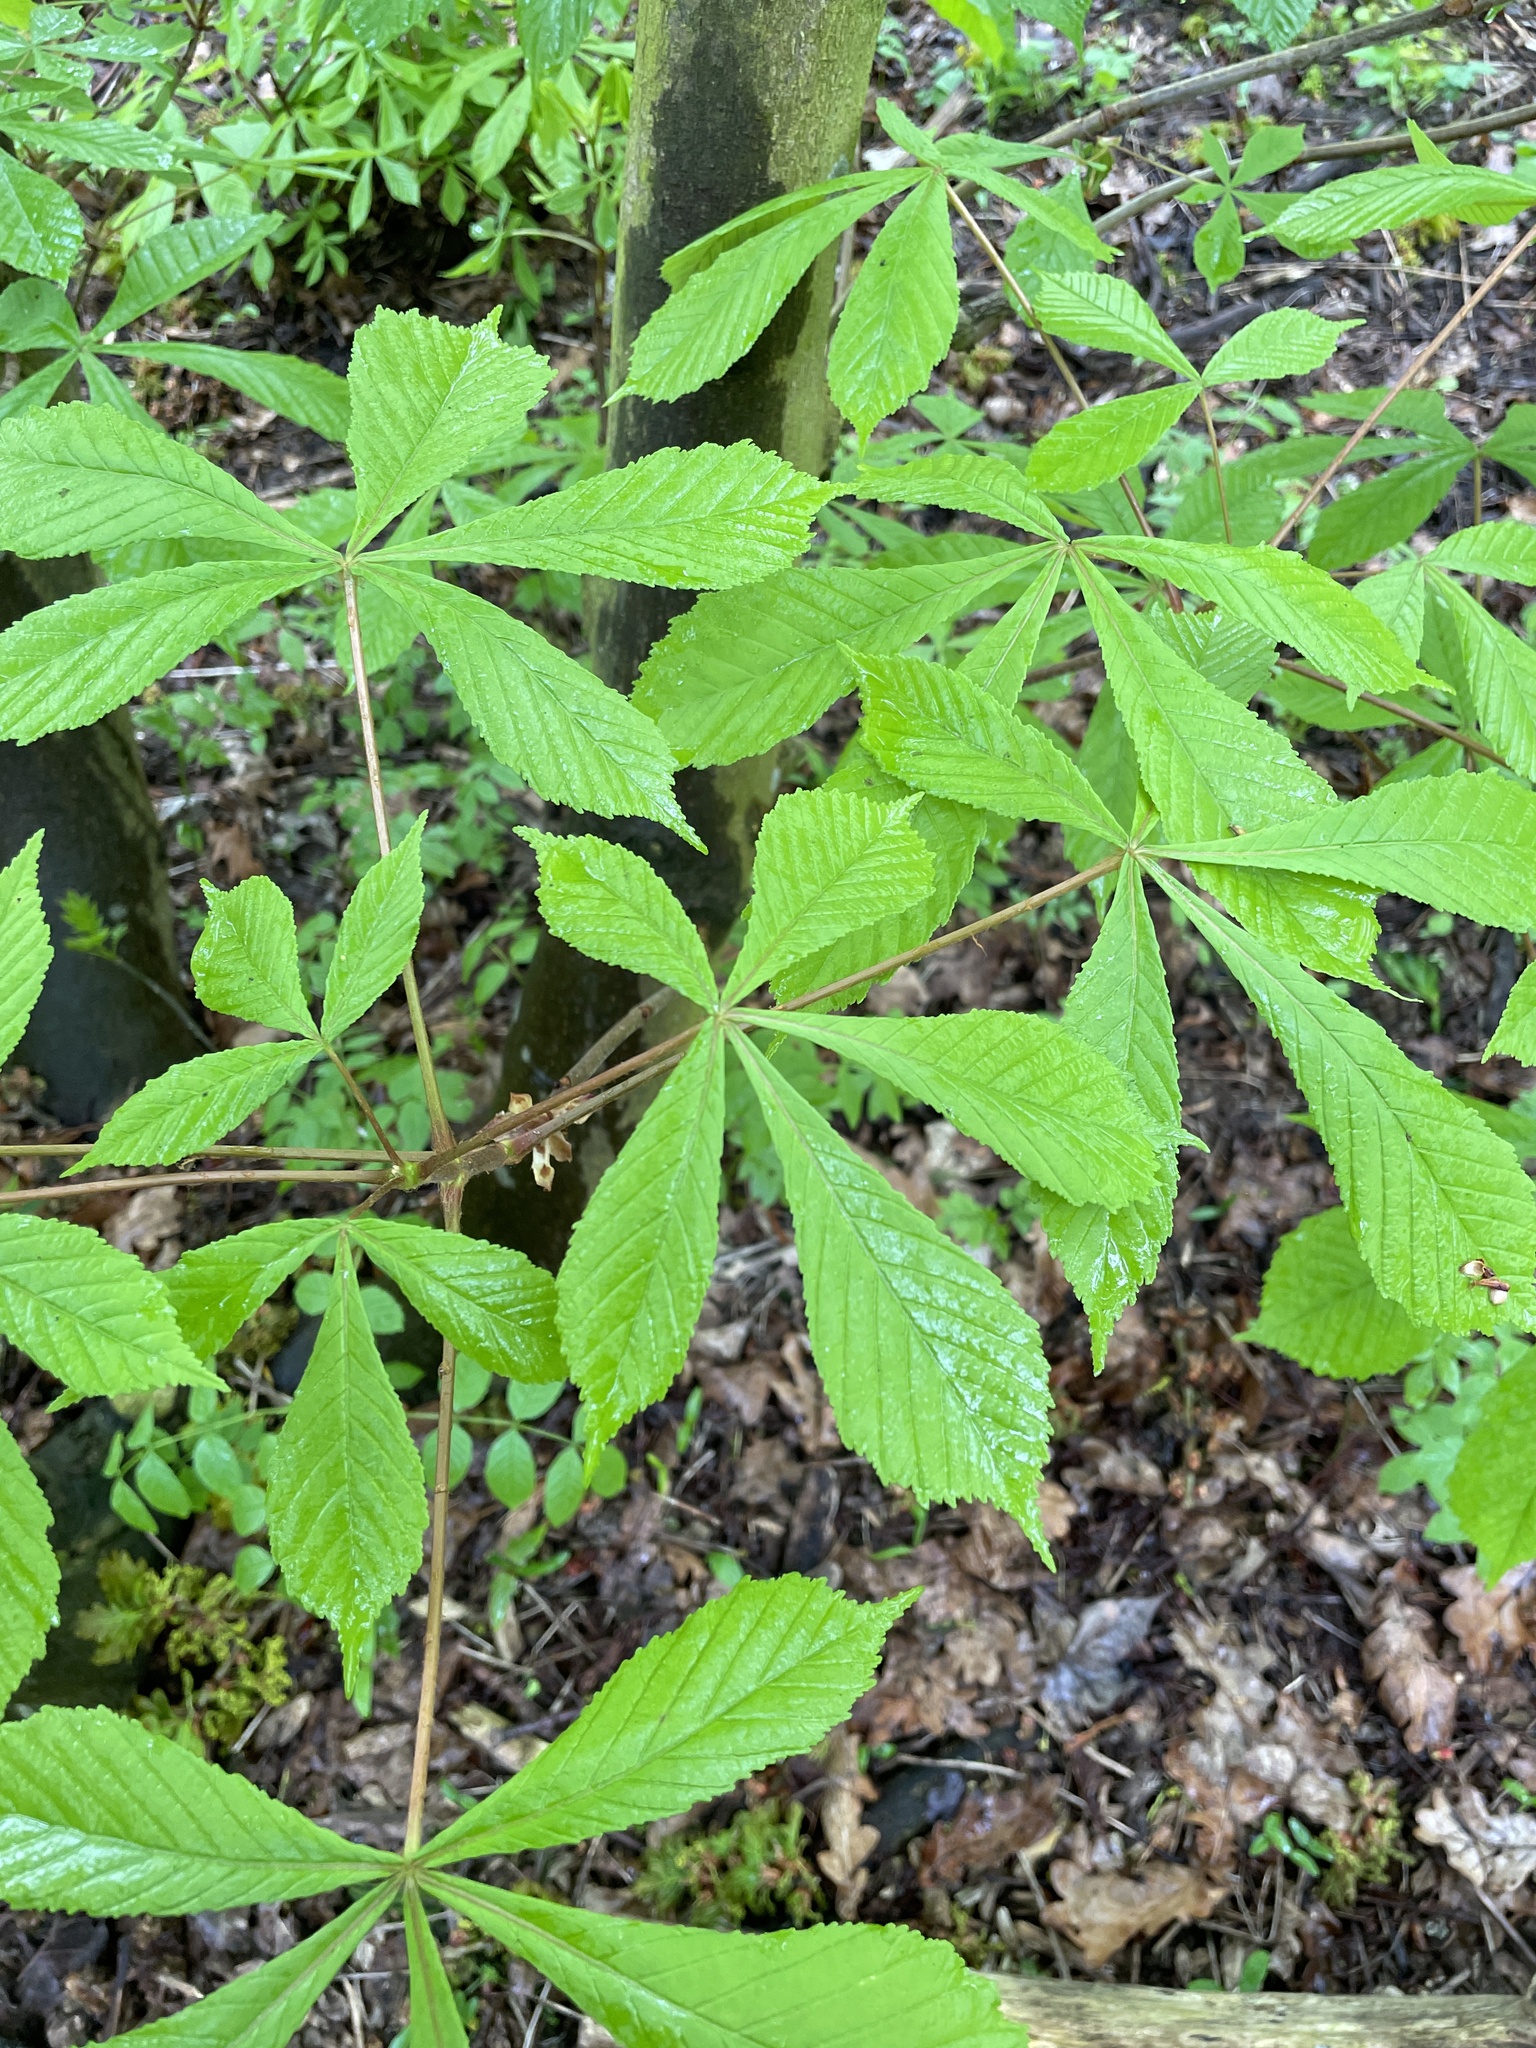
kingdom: Plantae
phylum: Tracheophyta
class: Magnoliopsida
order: Sapindales
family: Sapindaceae
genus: Aesculus
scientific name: Aesculus hippocastanum
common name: Horse-chestnut
